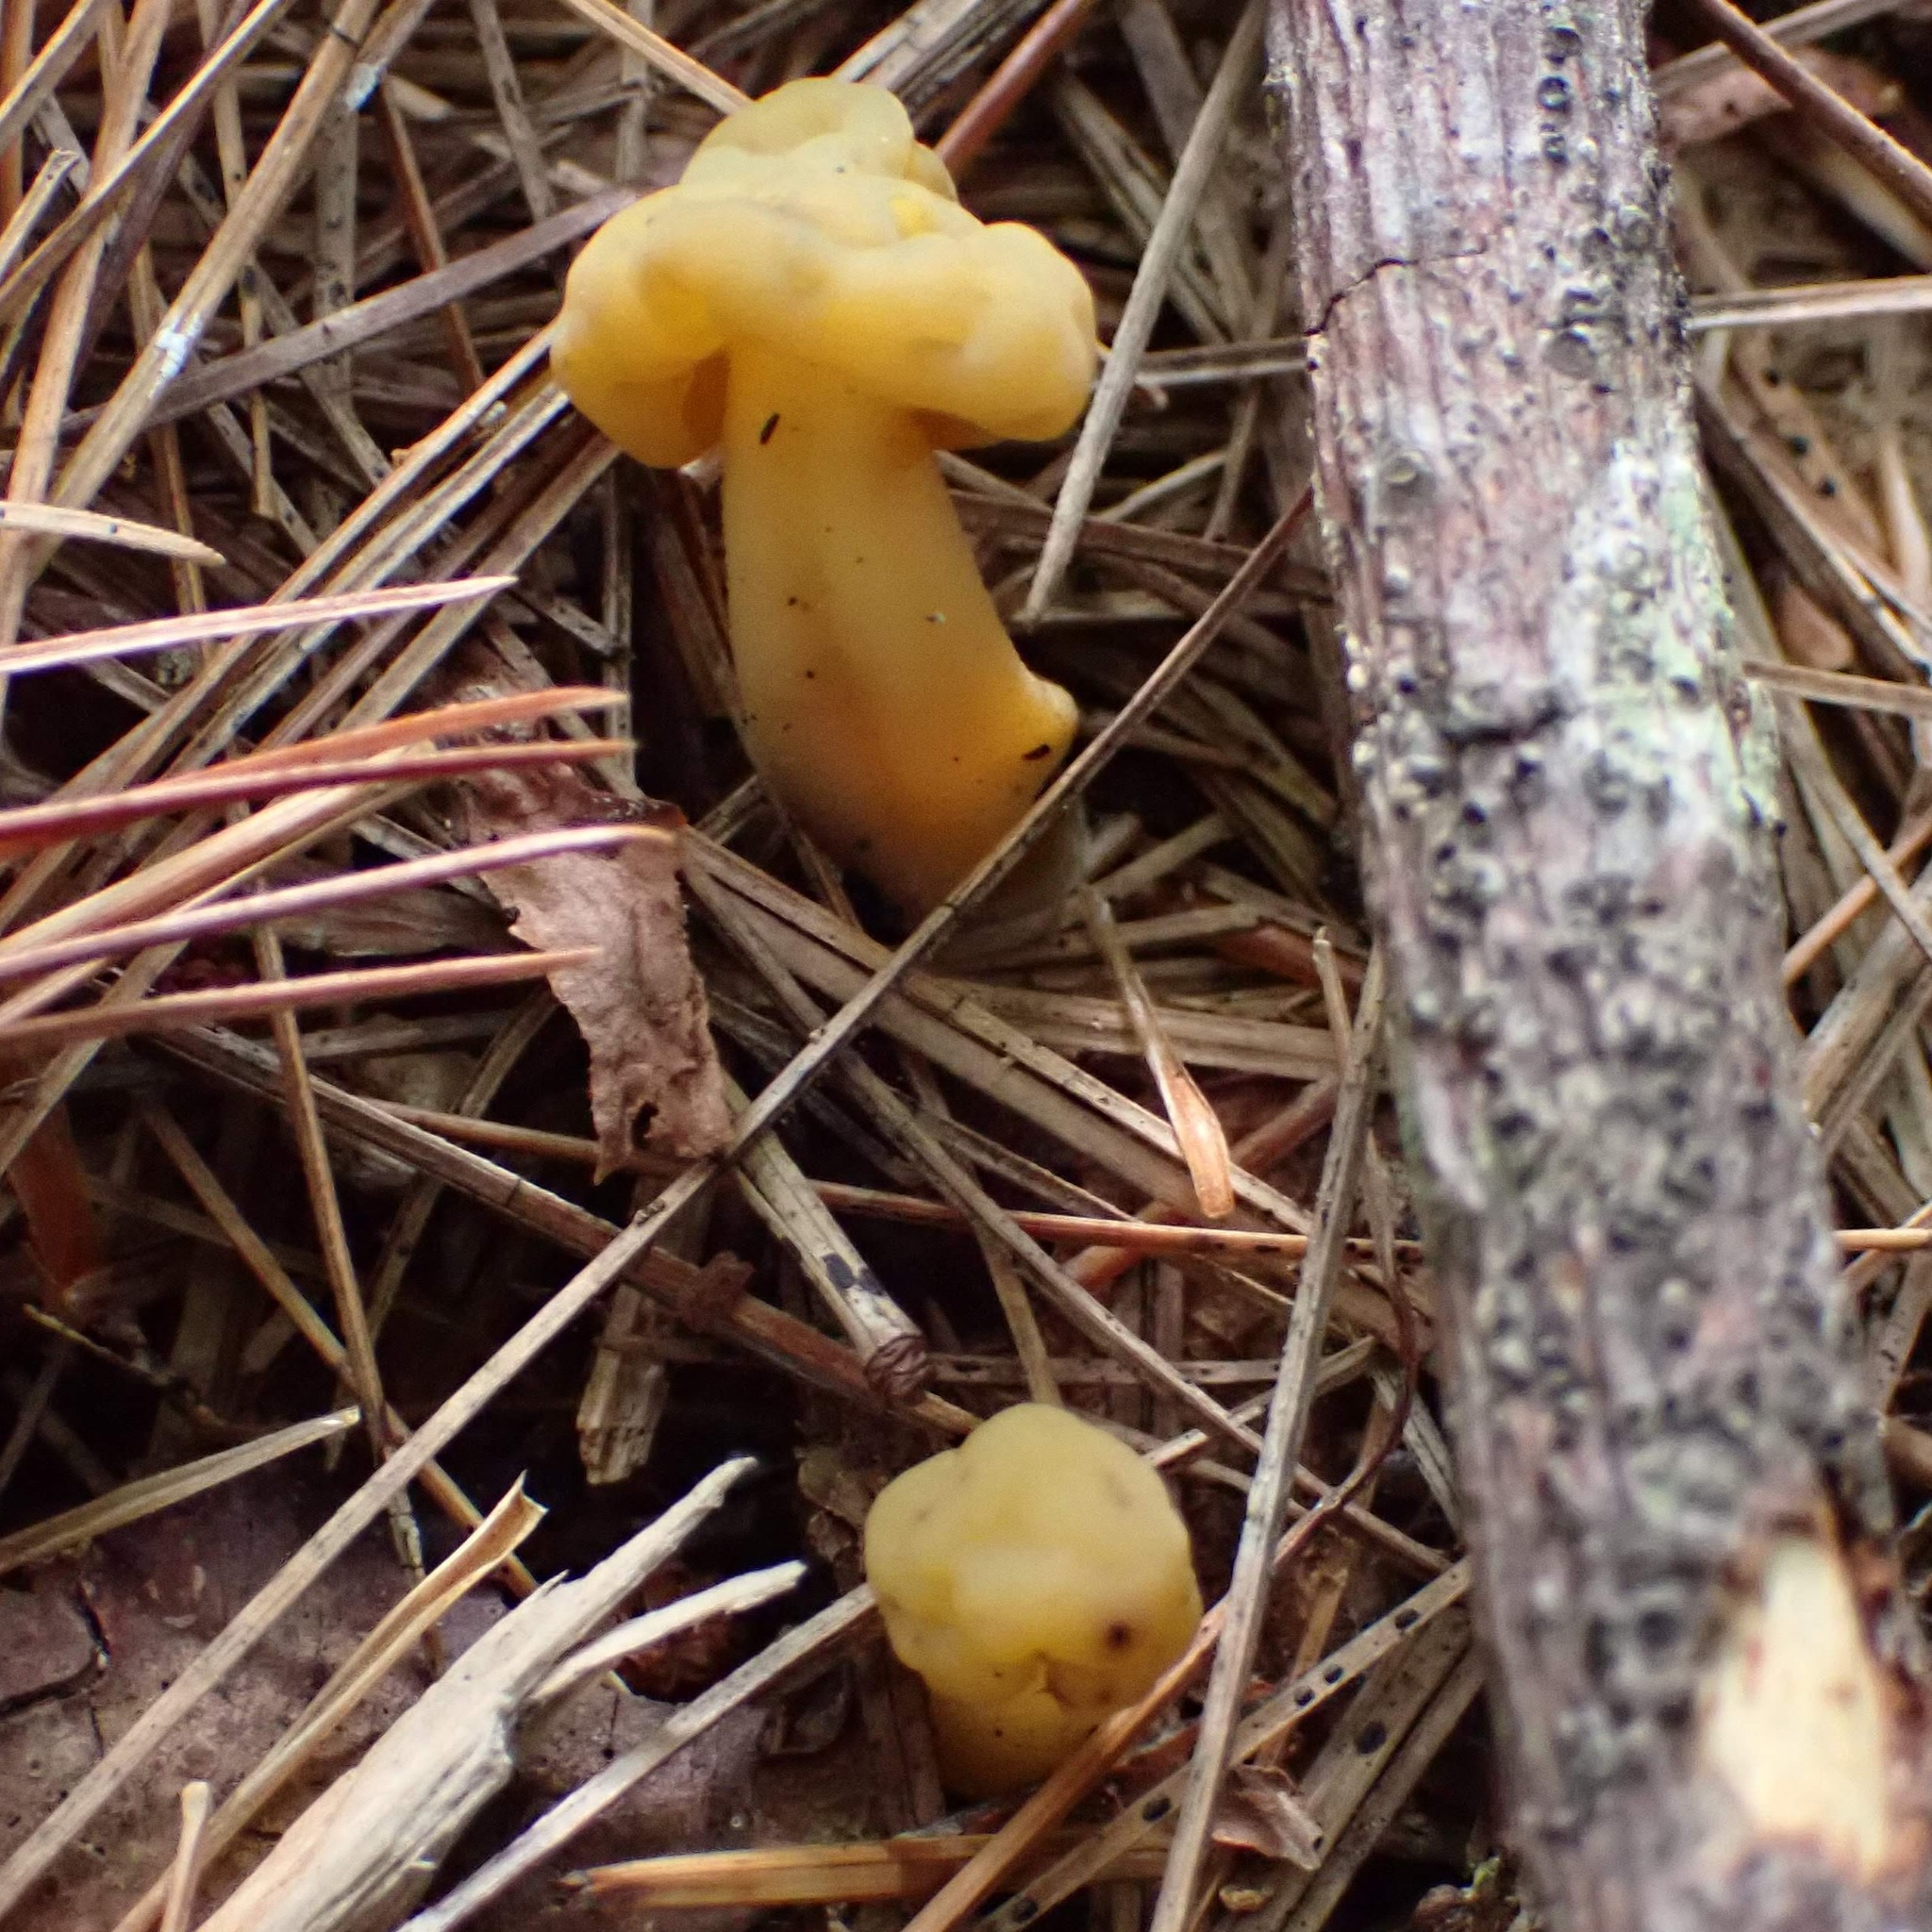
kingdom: Fungi
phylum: Ascomycota
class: Leotiomycetes
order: Leotiales
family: Leotiaceae
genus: Leotia
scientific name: Leotia lubrica
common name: Jellybaby
